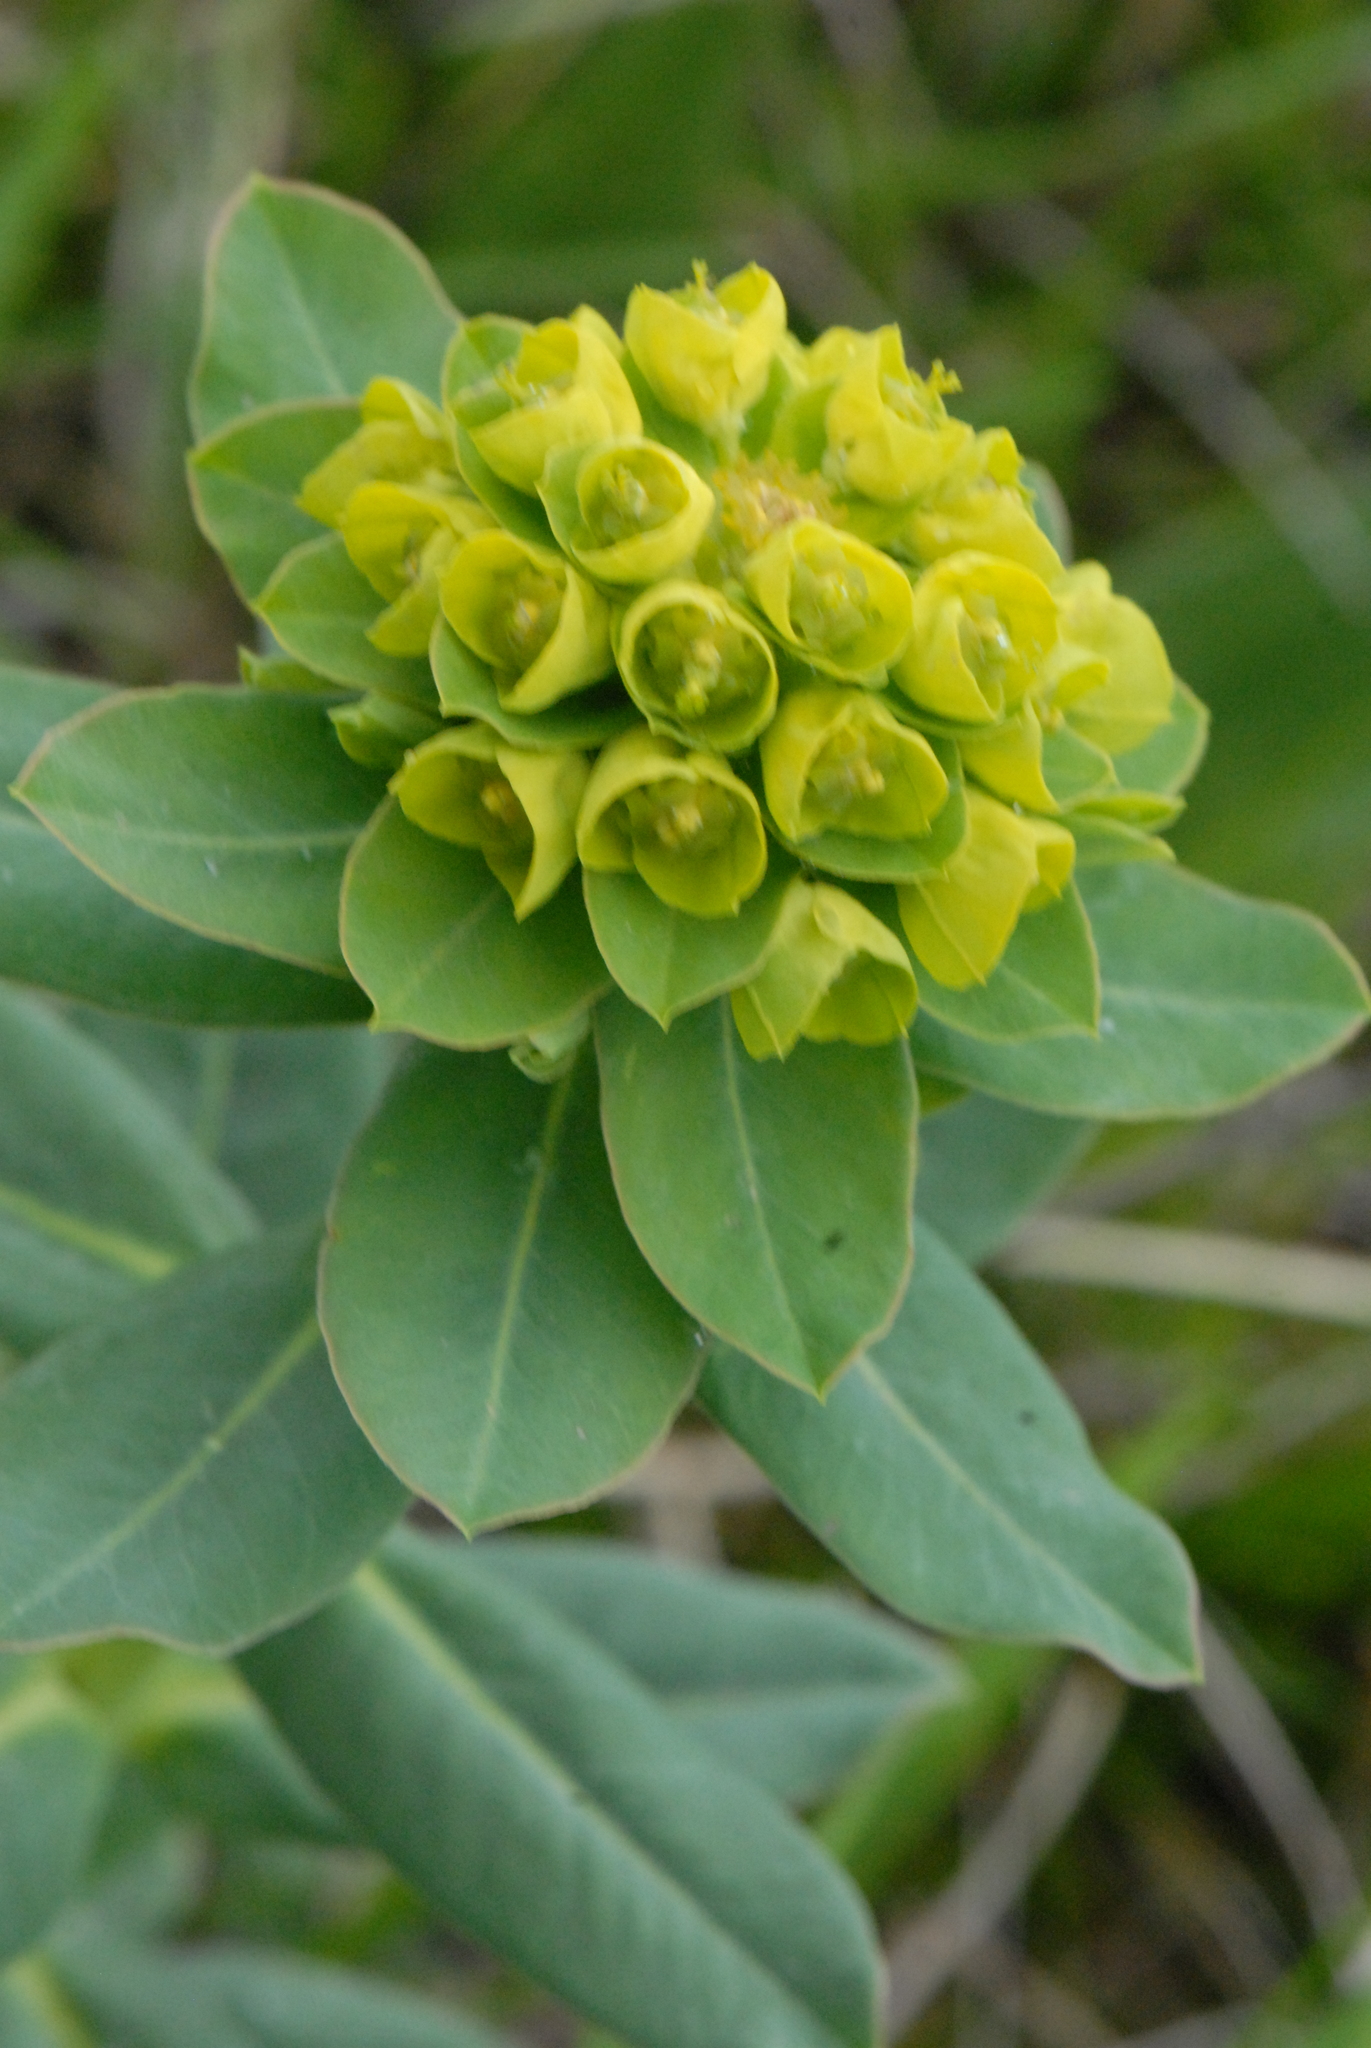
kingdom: Plantae
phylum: Tracheophyta
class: Magnoliopsida
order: Ericales
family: Primulaceae
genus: Primula
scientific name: Primula veris
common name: Cowslip
